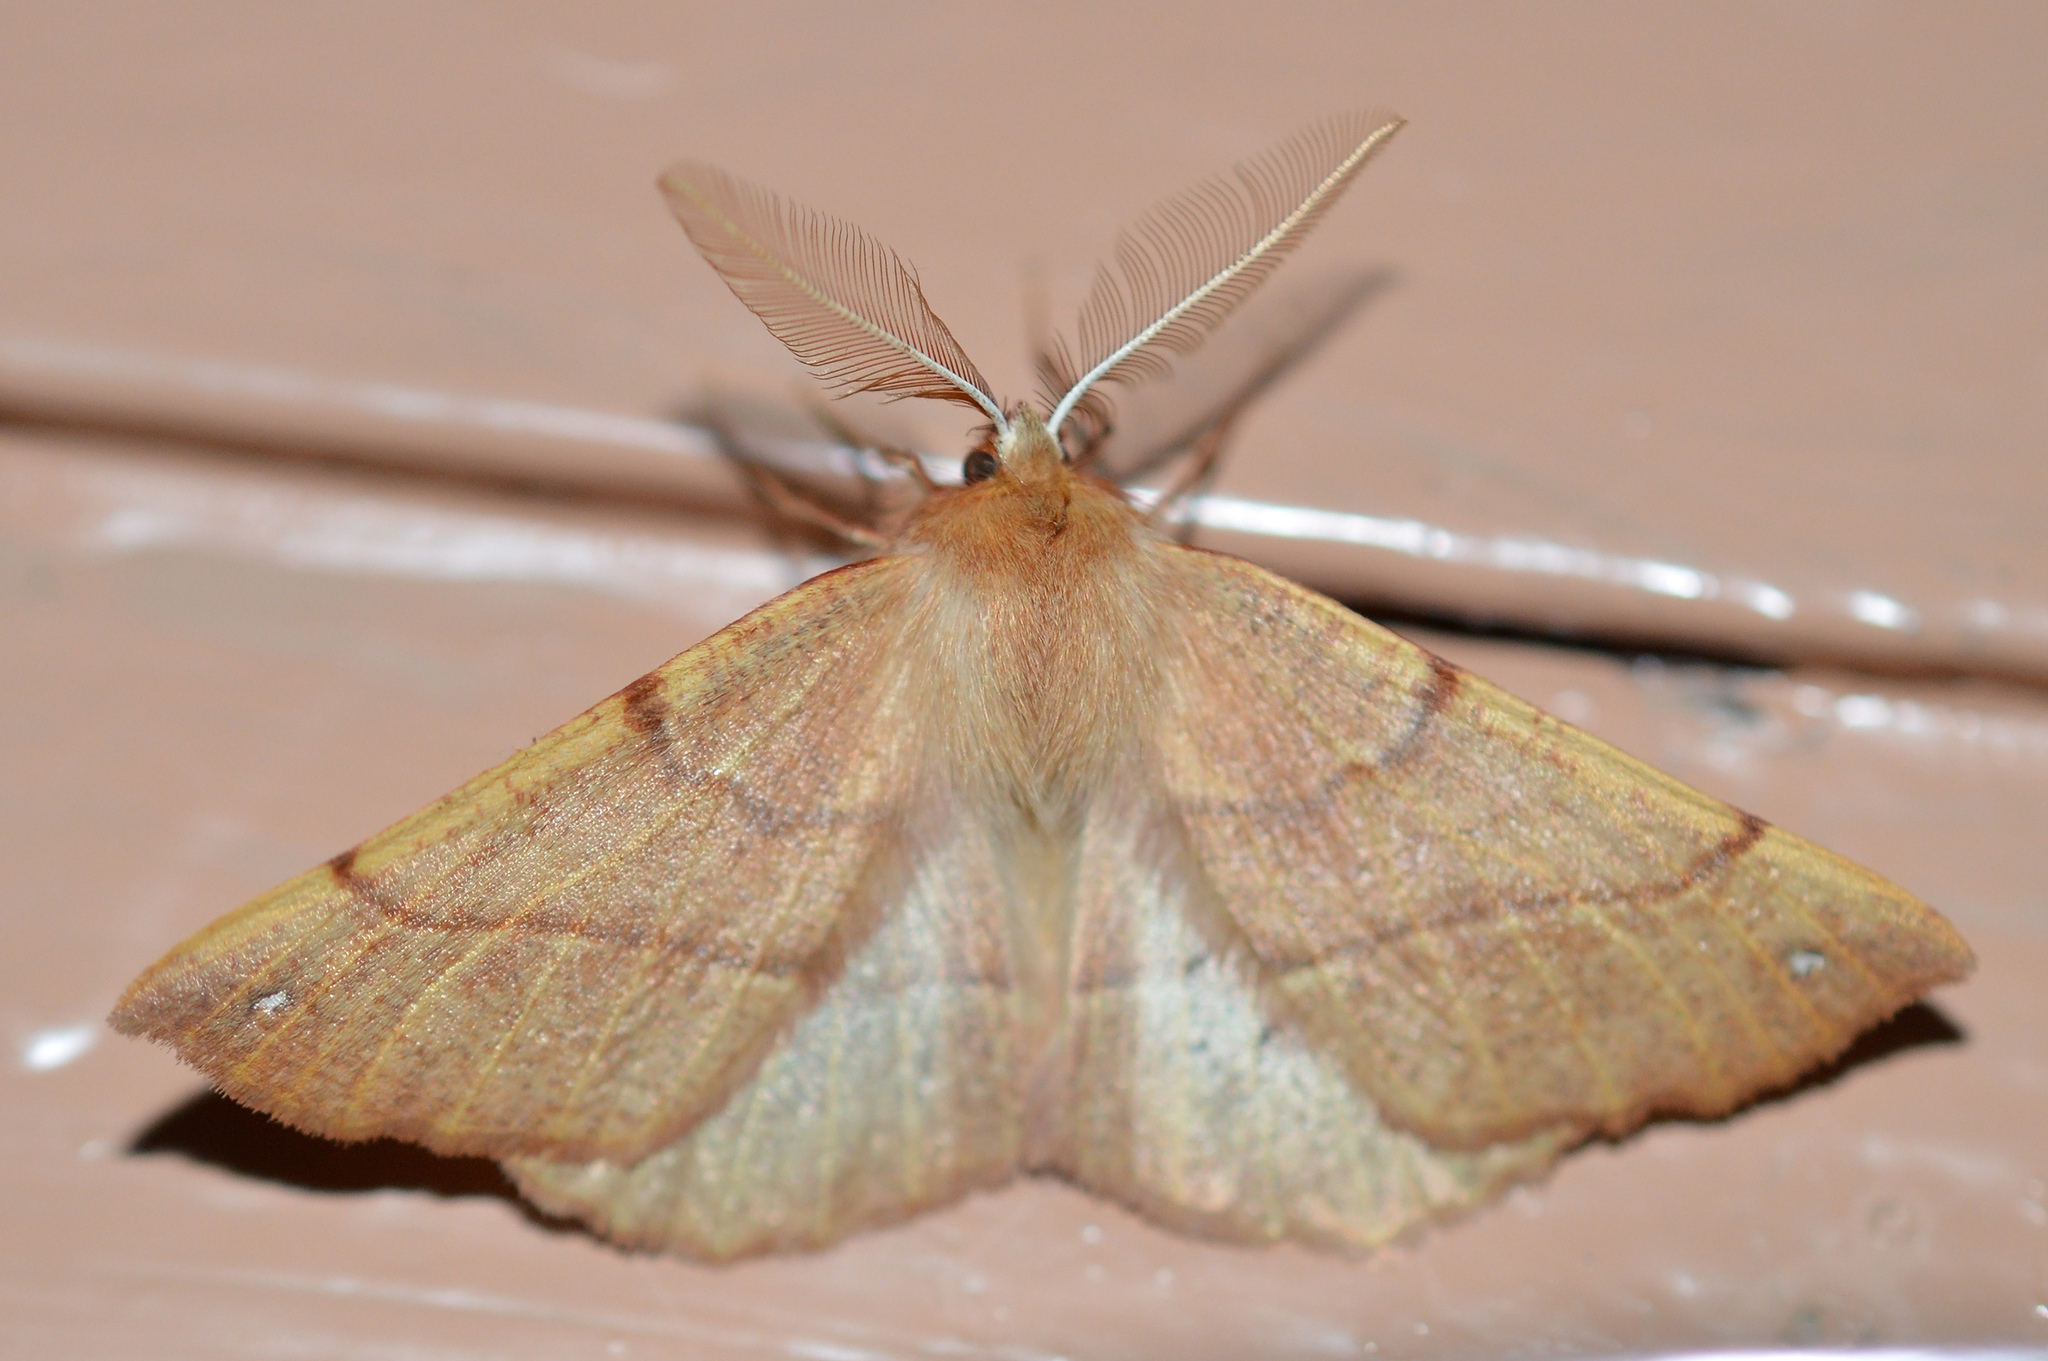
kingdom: Animalia
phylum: Arthropoda
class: Insecta
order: Lepidoptera
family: Geometridae
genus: Colotois
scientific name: Colotois pennaria
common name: Feathered thorn
